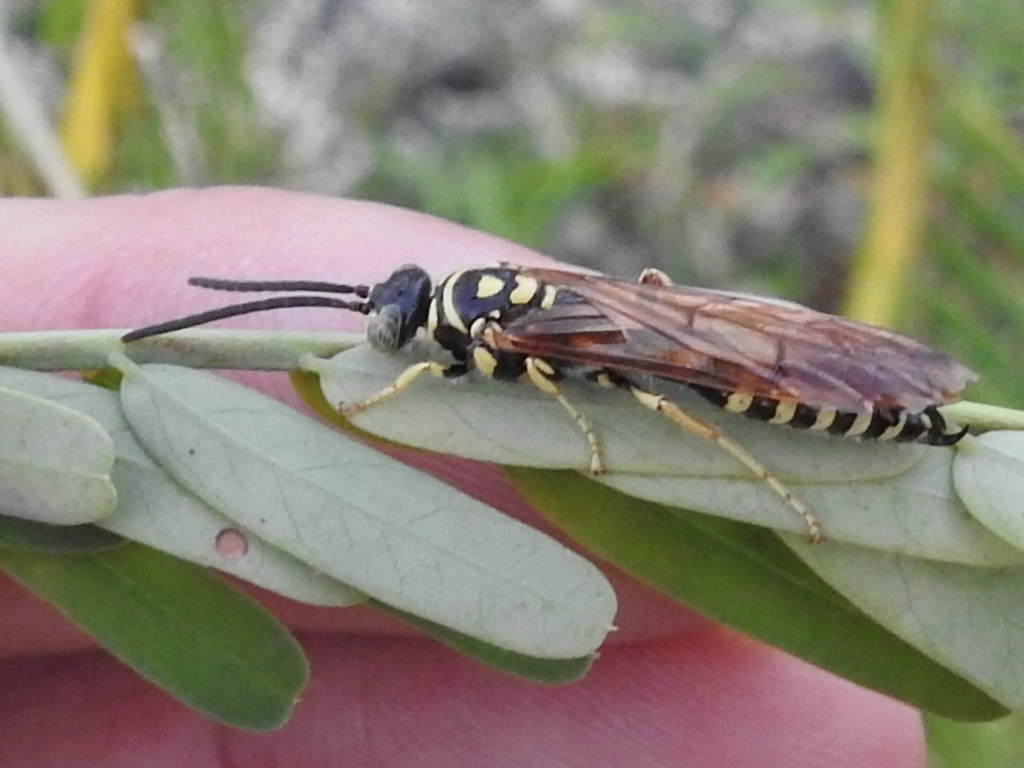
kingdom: Animalia
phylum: Arthropoda
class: Insecta
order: Hymenoptera
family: Tiphiidae
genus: Myzinum
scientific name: Myzinum quinquecinctum
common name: Five-banded thynnid wasp
